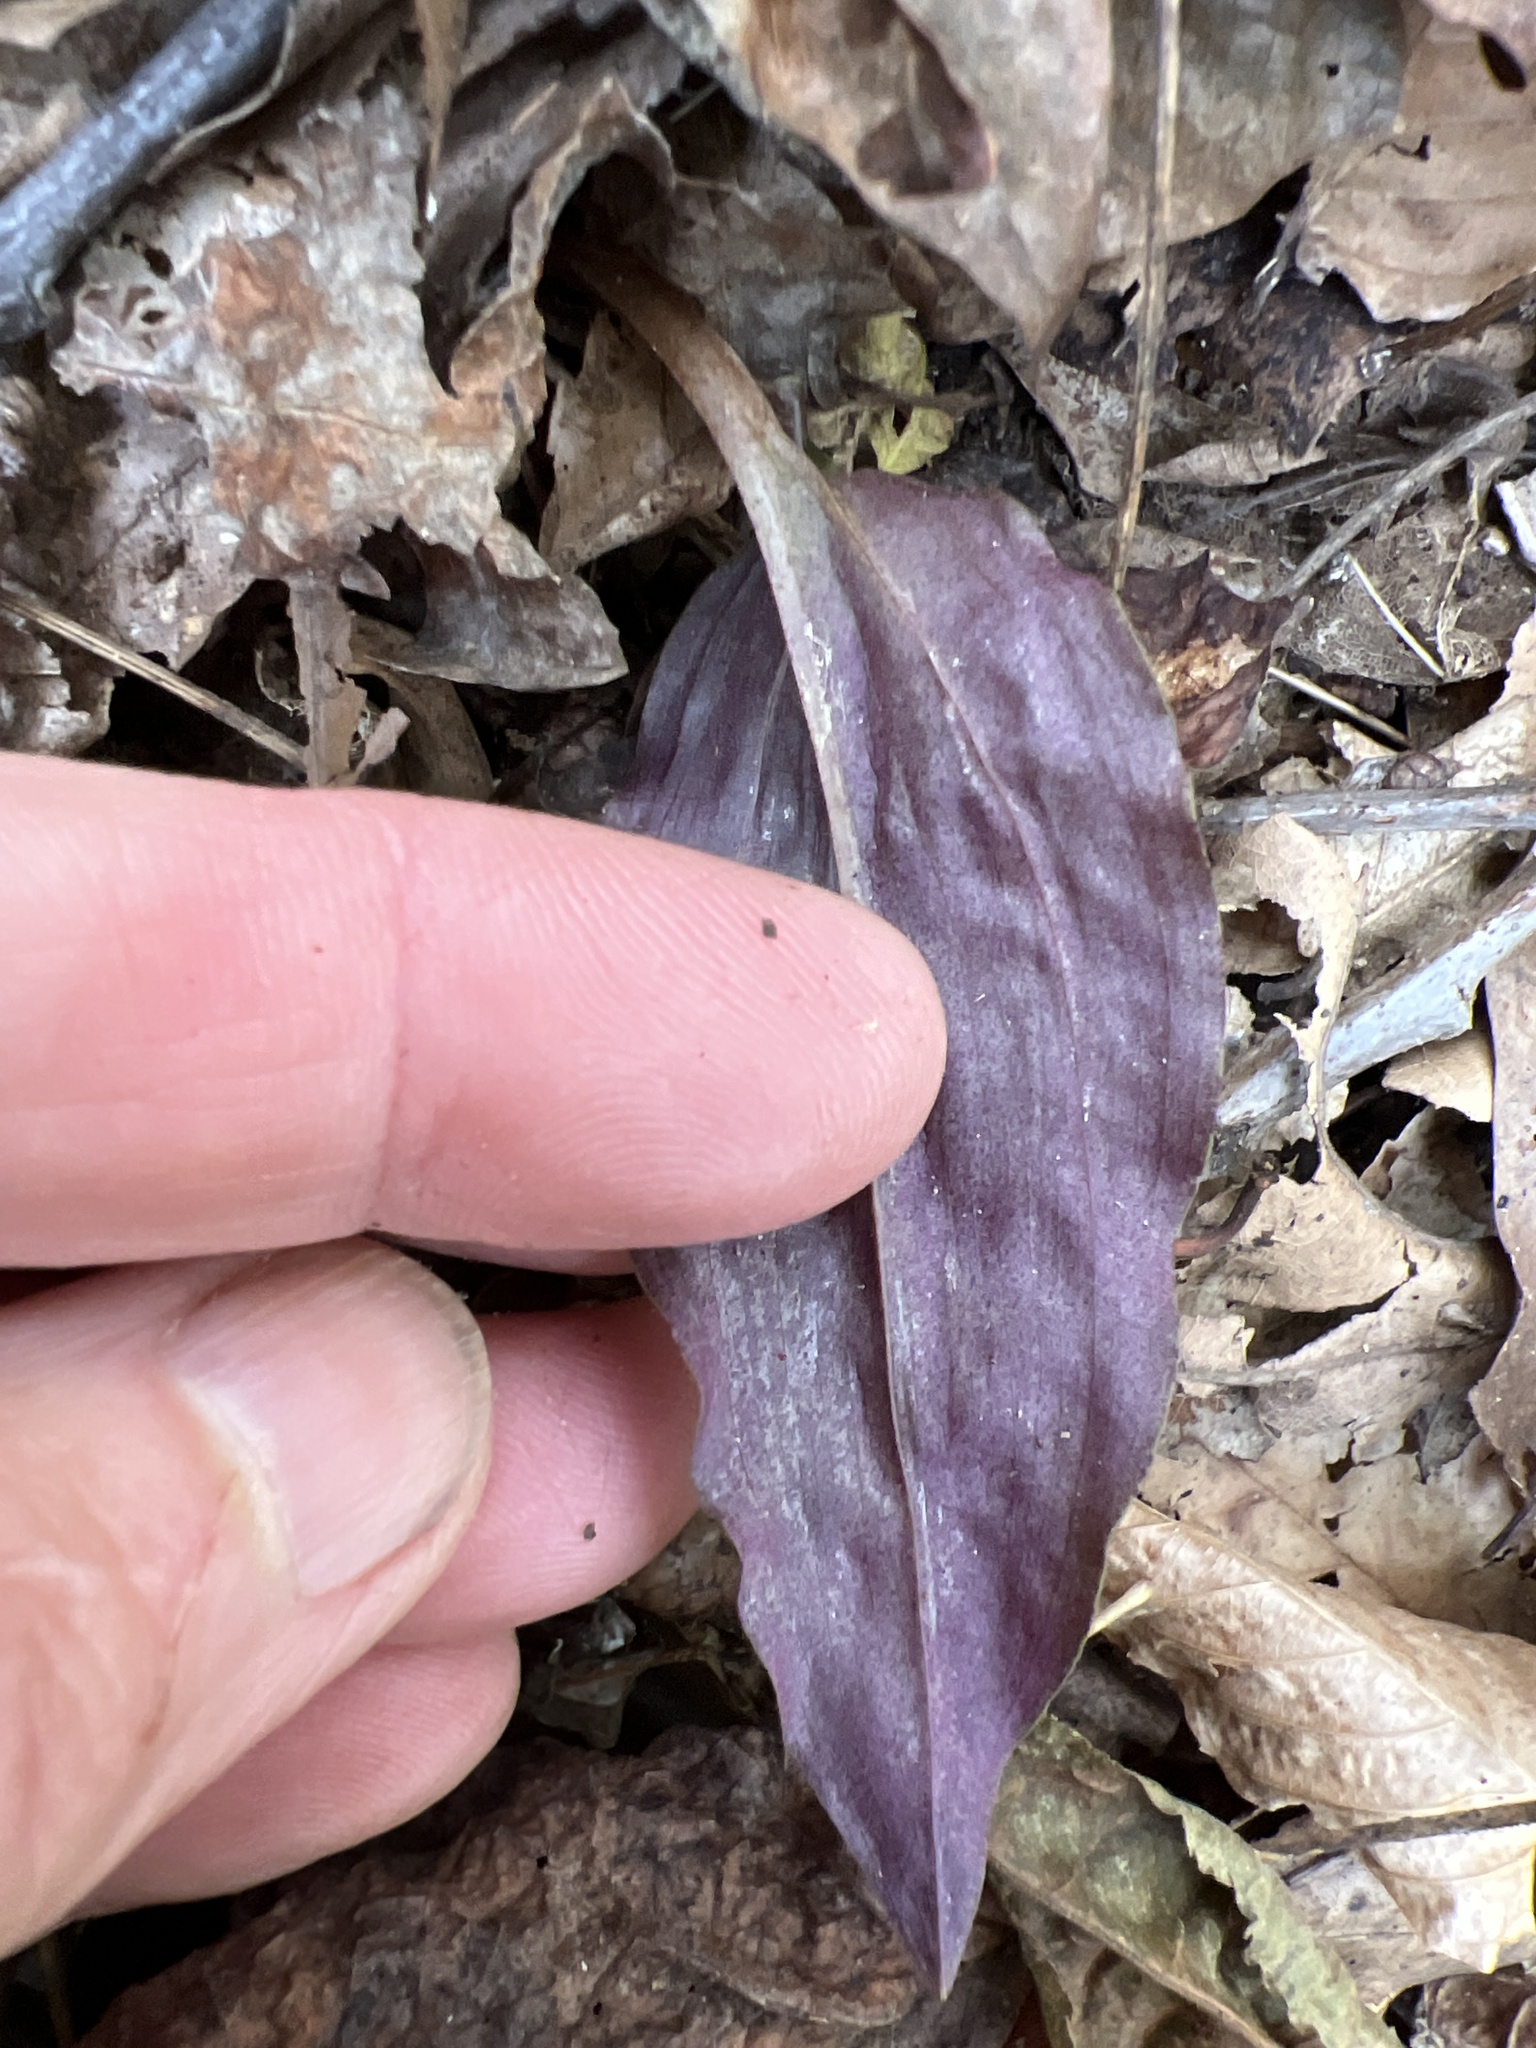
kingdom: Plantae
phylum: Tracheophyta
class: Liliopsida
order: Asparagales
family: Orchidaceae
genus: Tipularia
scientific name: Tipularia discolor
